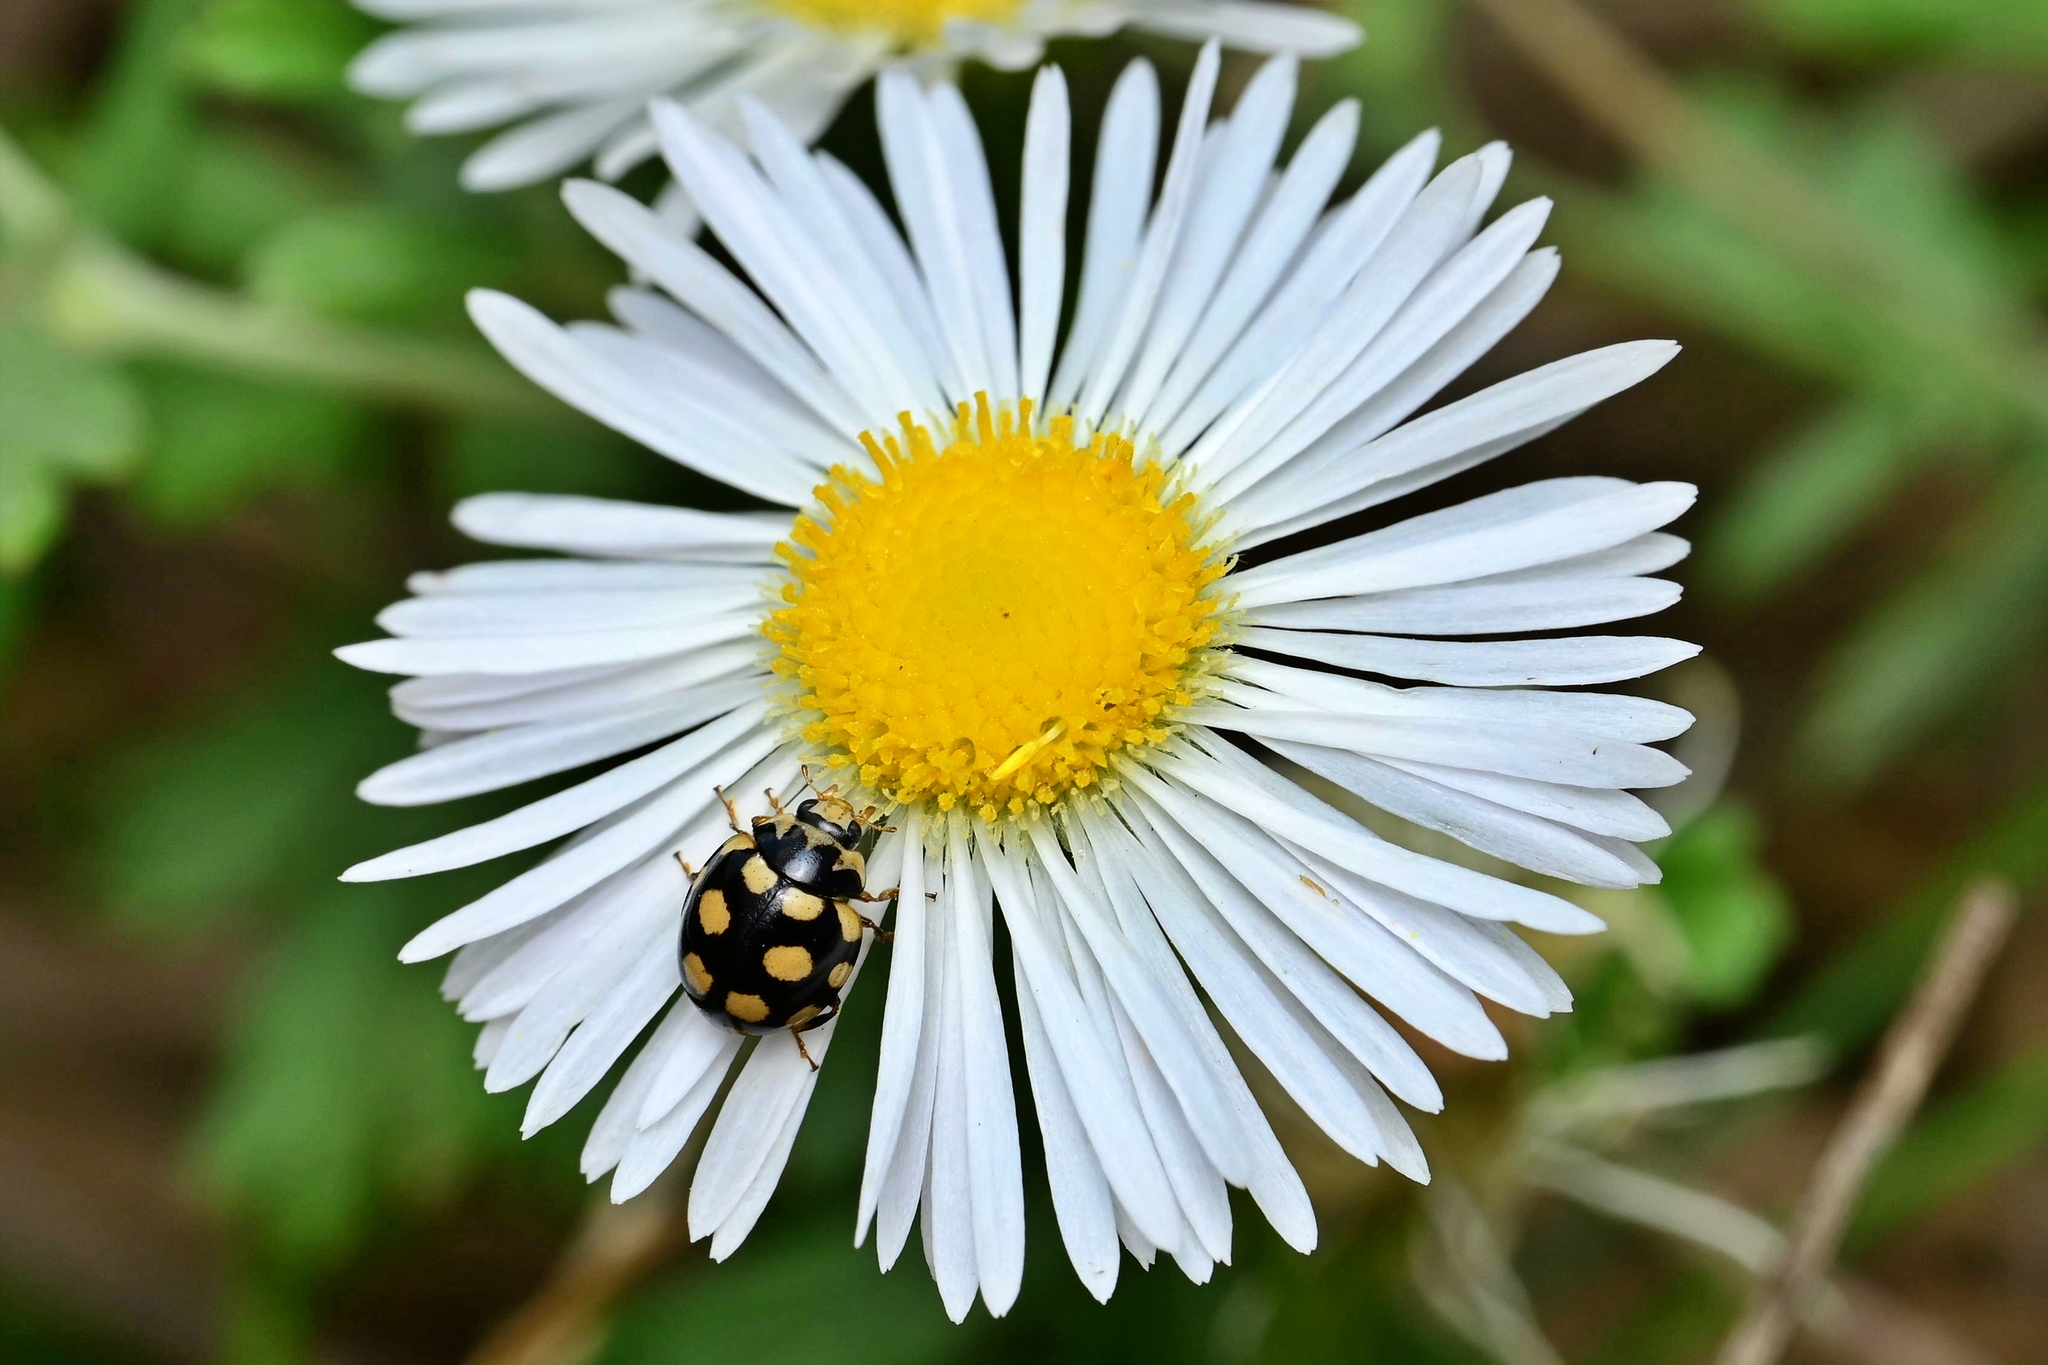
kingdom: Animalia
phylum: Arthropoda
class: Insecta
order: Coleoptera
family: Coccinellidae
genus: Coccinula
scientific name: Coccinula quatuordecimpustulata
